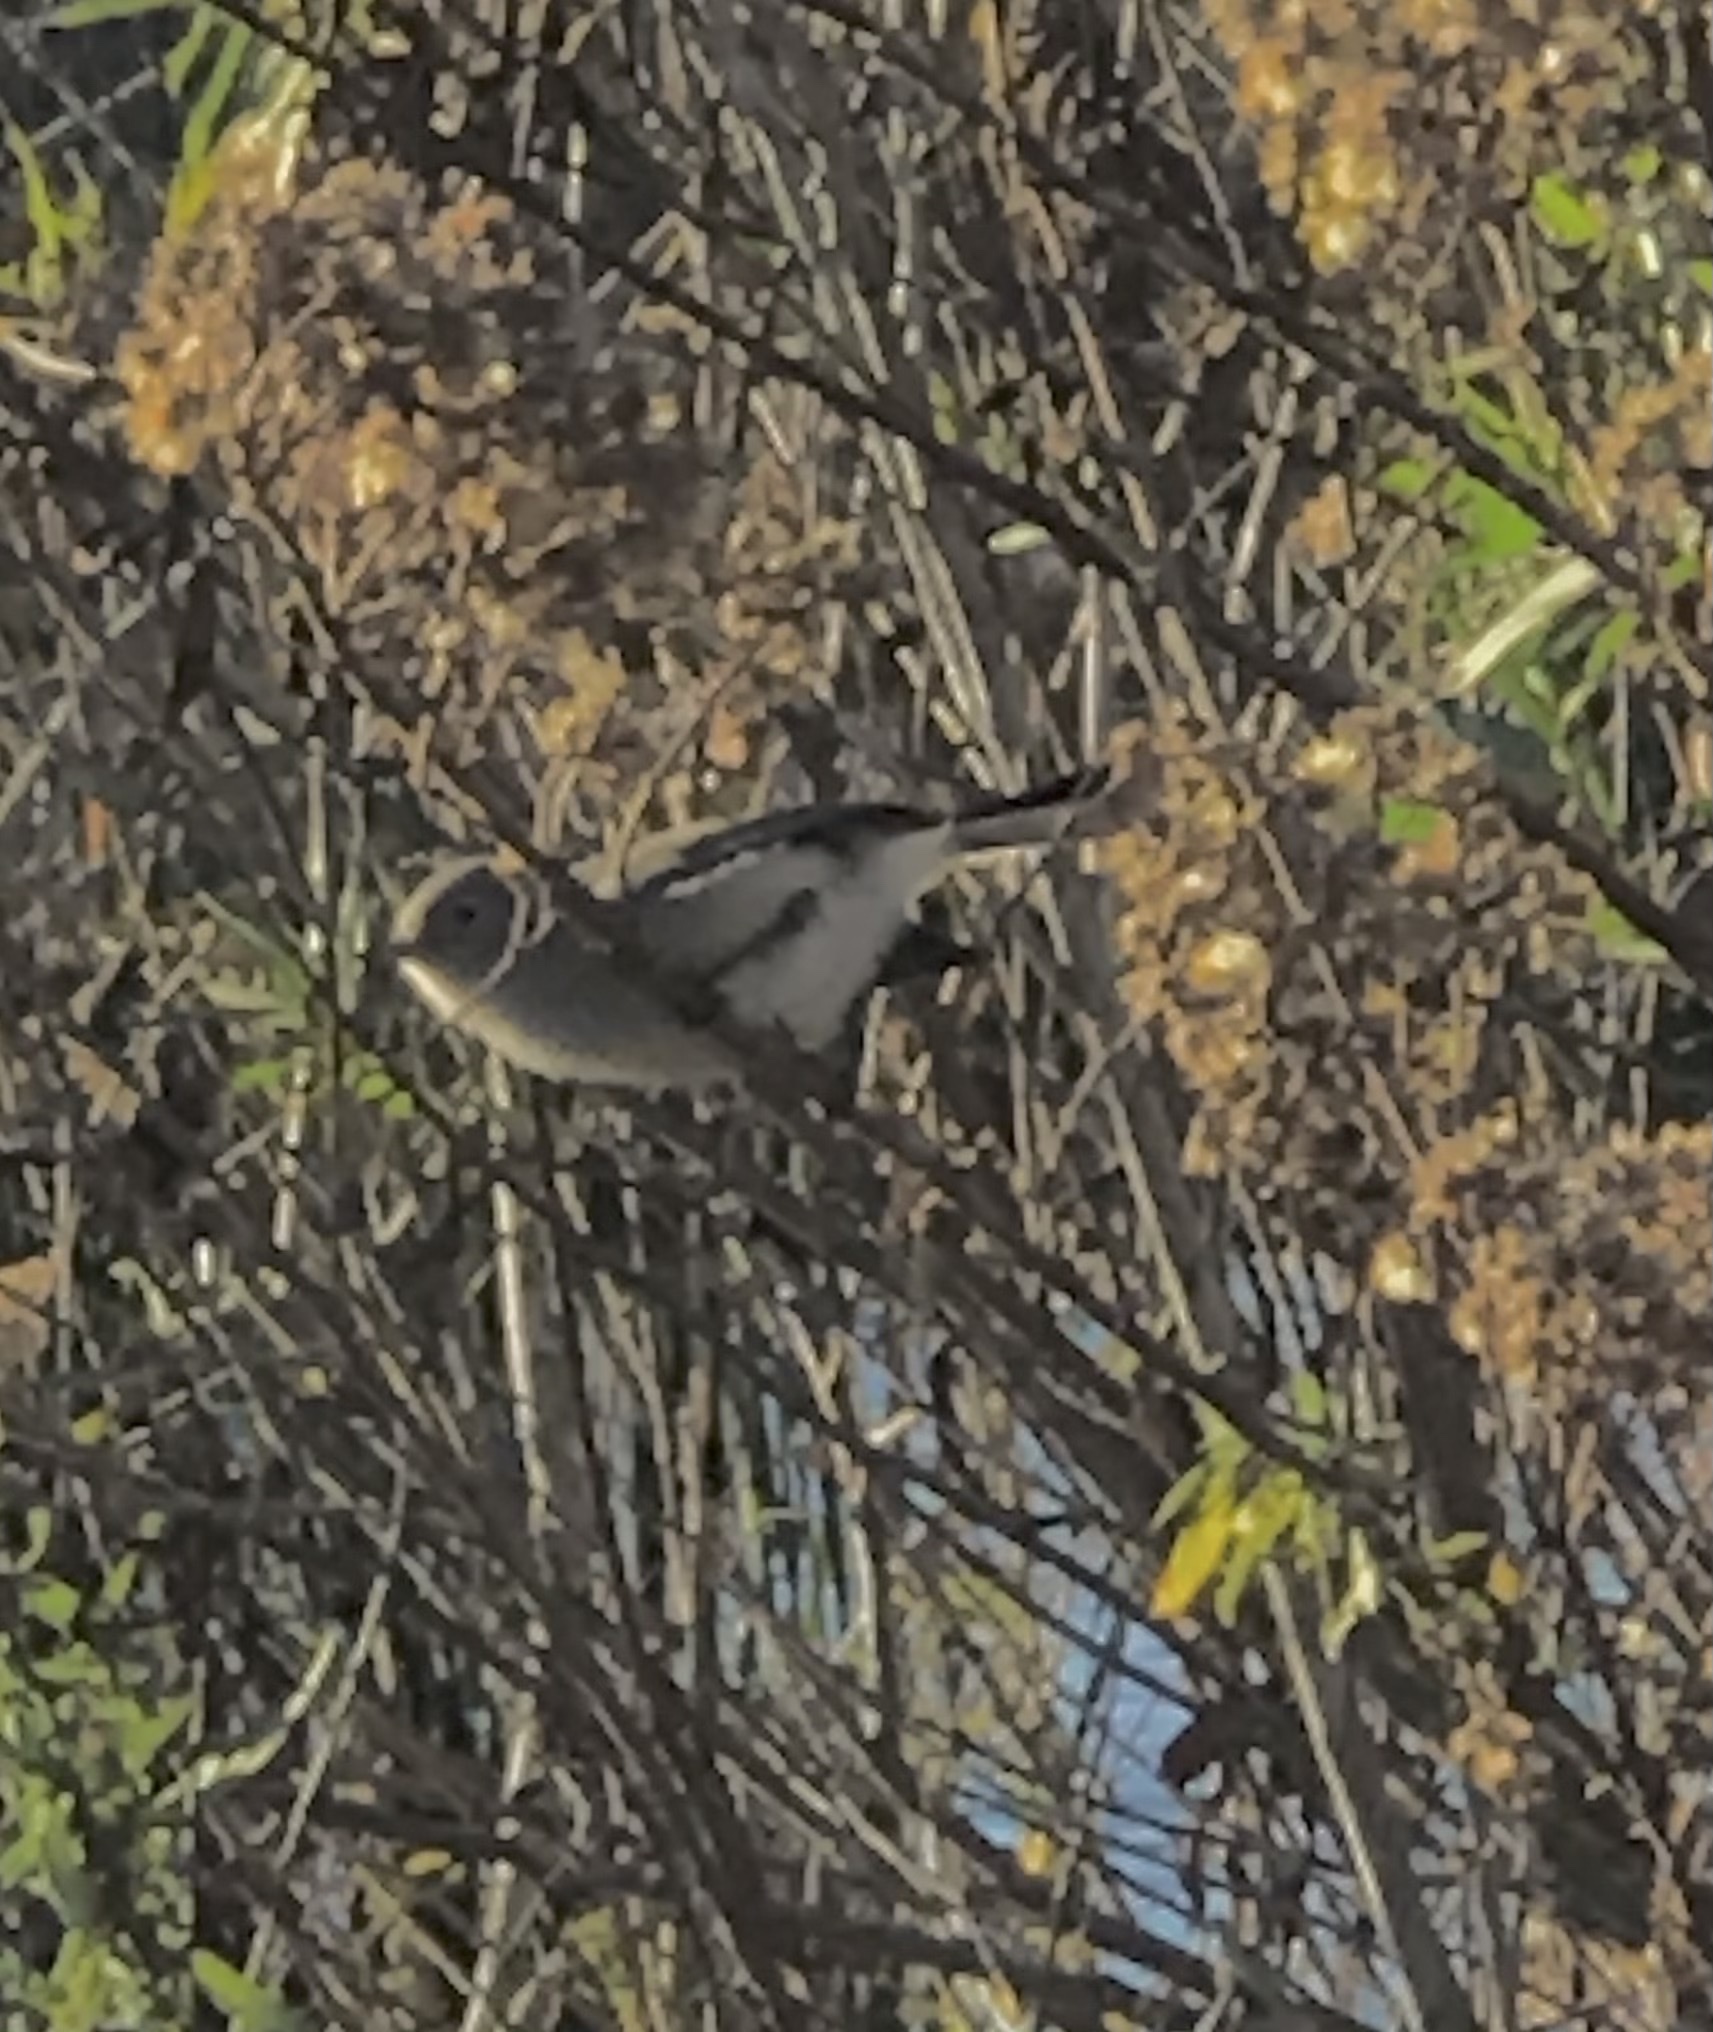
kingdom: Animalia
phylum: Chordata
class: Aves
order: Passeriformes
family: Polioptilidae
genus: Polioptila
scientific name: Polioptila caerulea
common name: Blue-gray gnatcatcher
